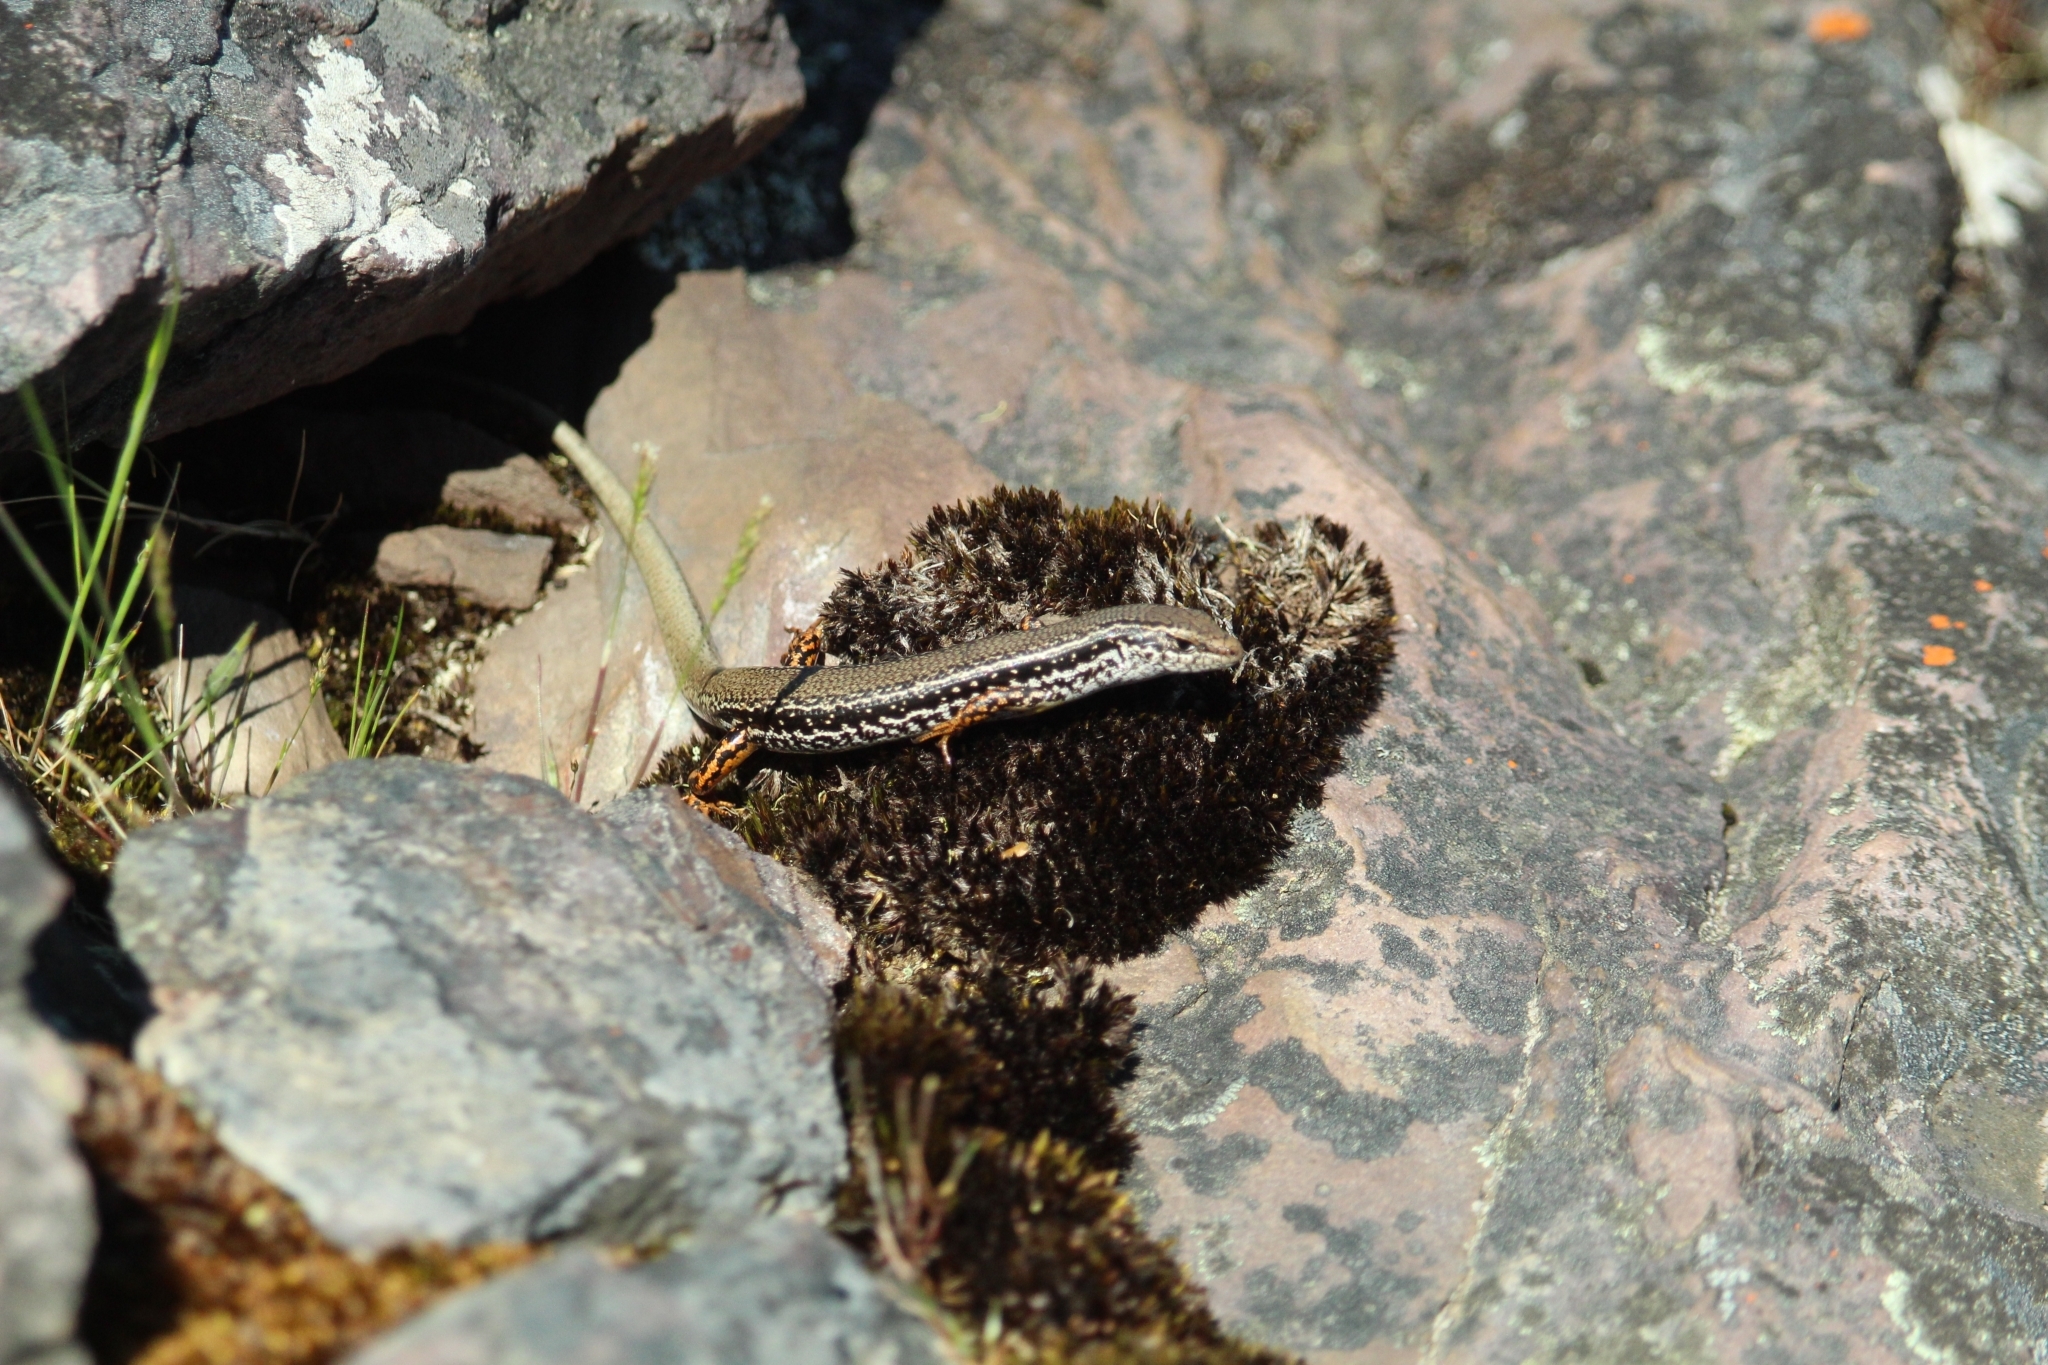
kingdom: Animalia
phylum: Chordata
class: Squamata
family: Scincidae
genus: Ctenotus
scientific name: Ctenotus labillardieri
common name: Common south-west ctenotus
